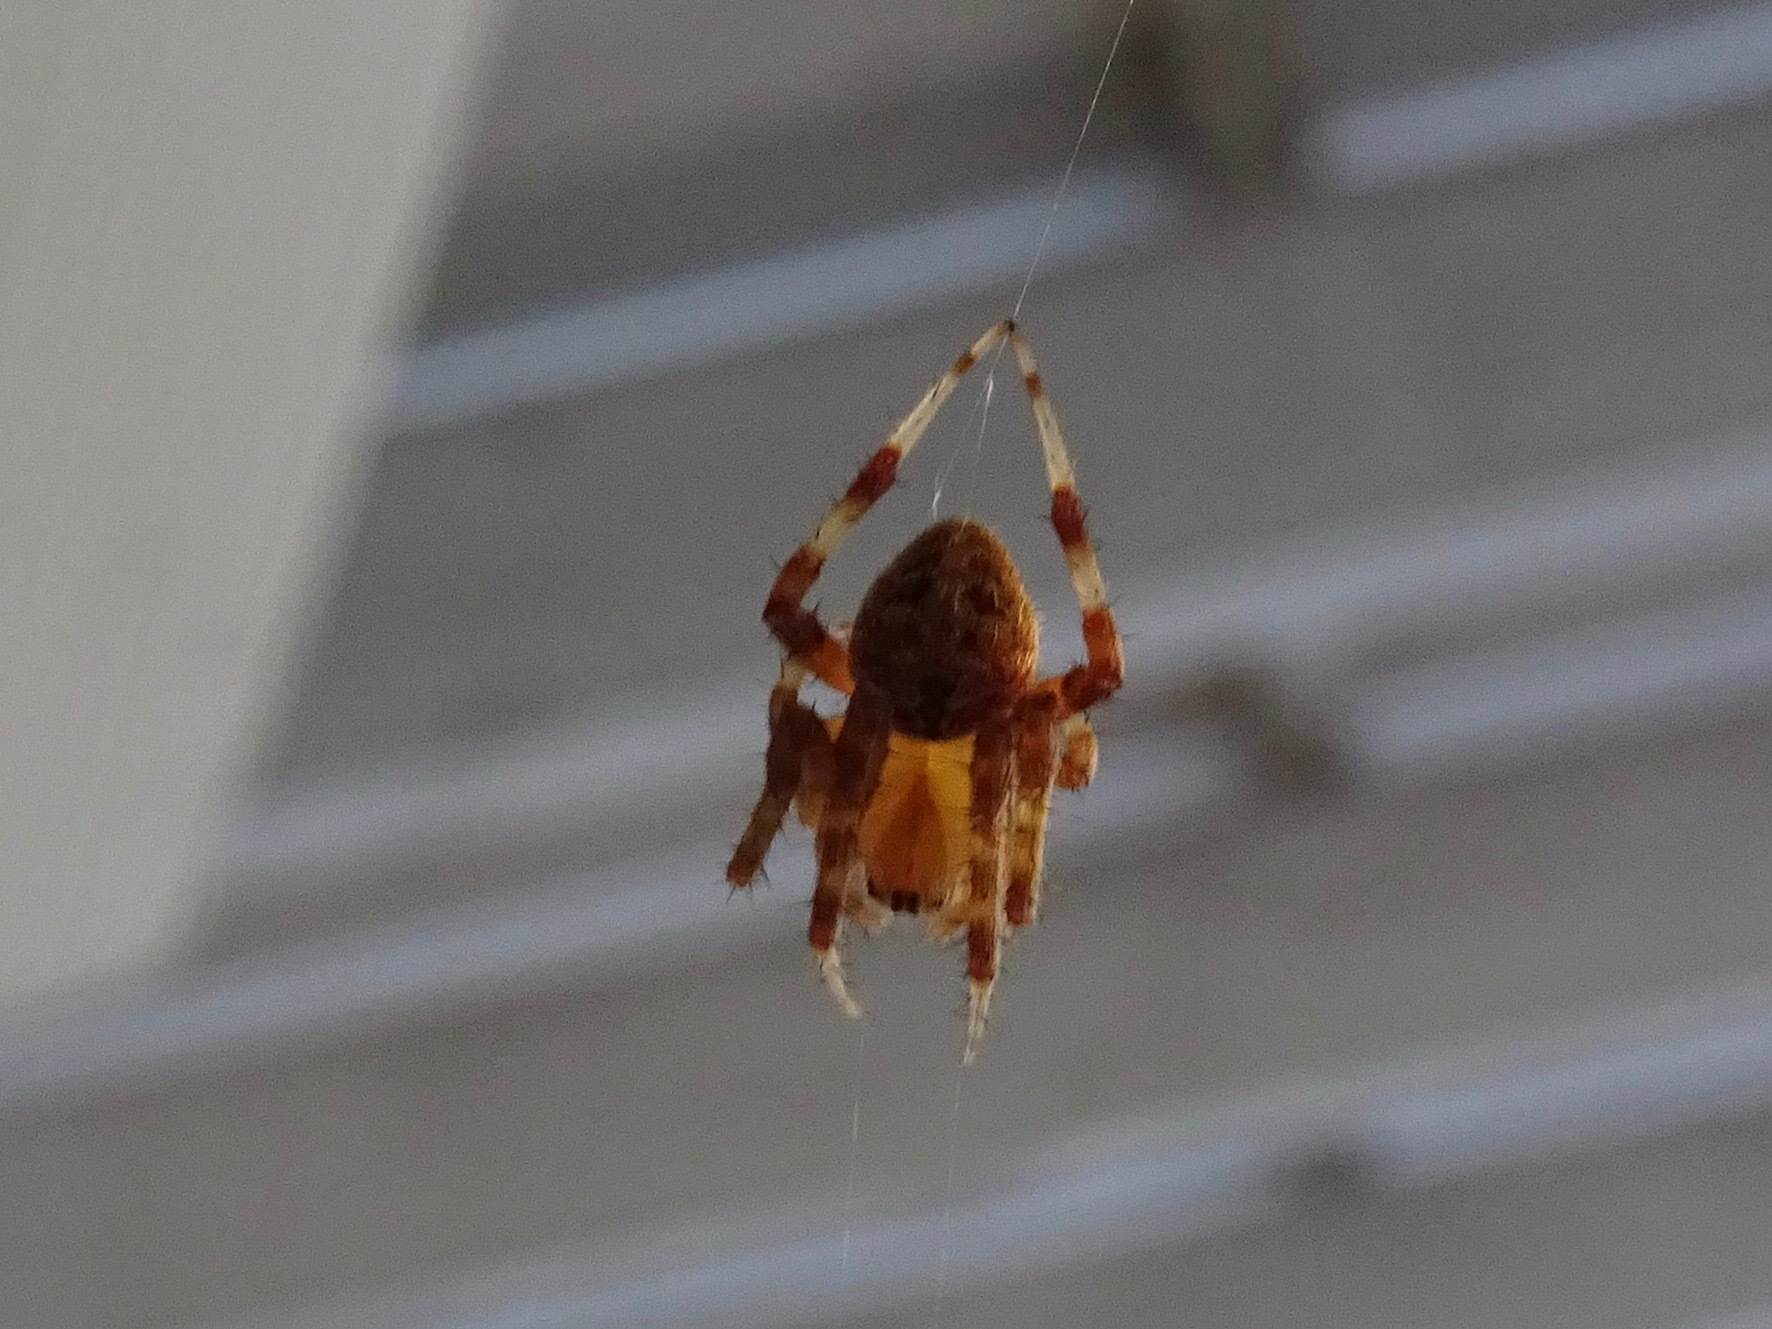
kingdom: Animalia
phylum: Arthropoda
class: Arachnida
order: Araneae
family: Araneidae
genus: Neoscona
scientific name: Neoscona crucifera
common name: Spotted orbweaver
